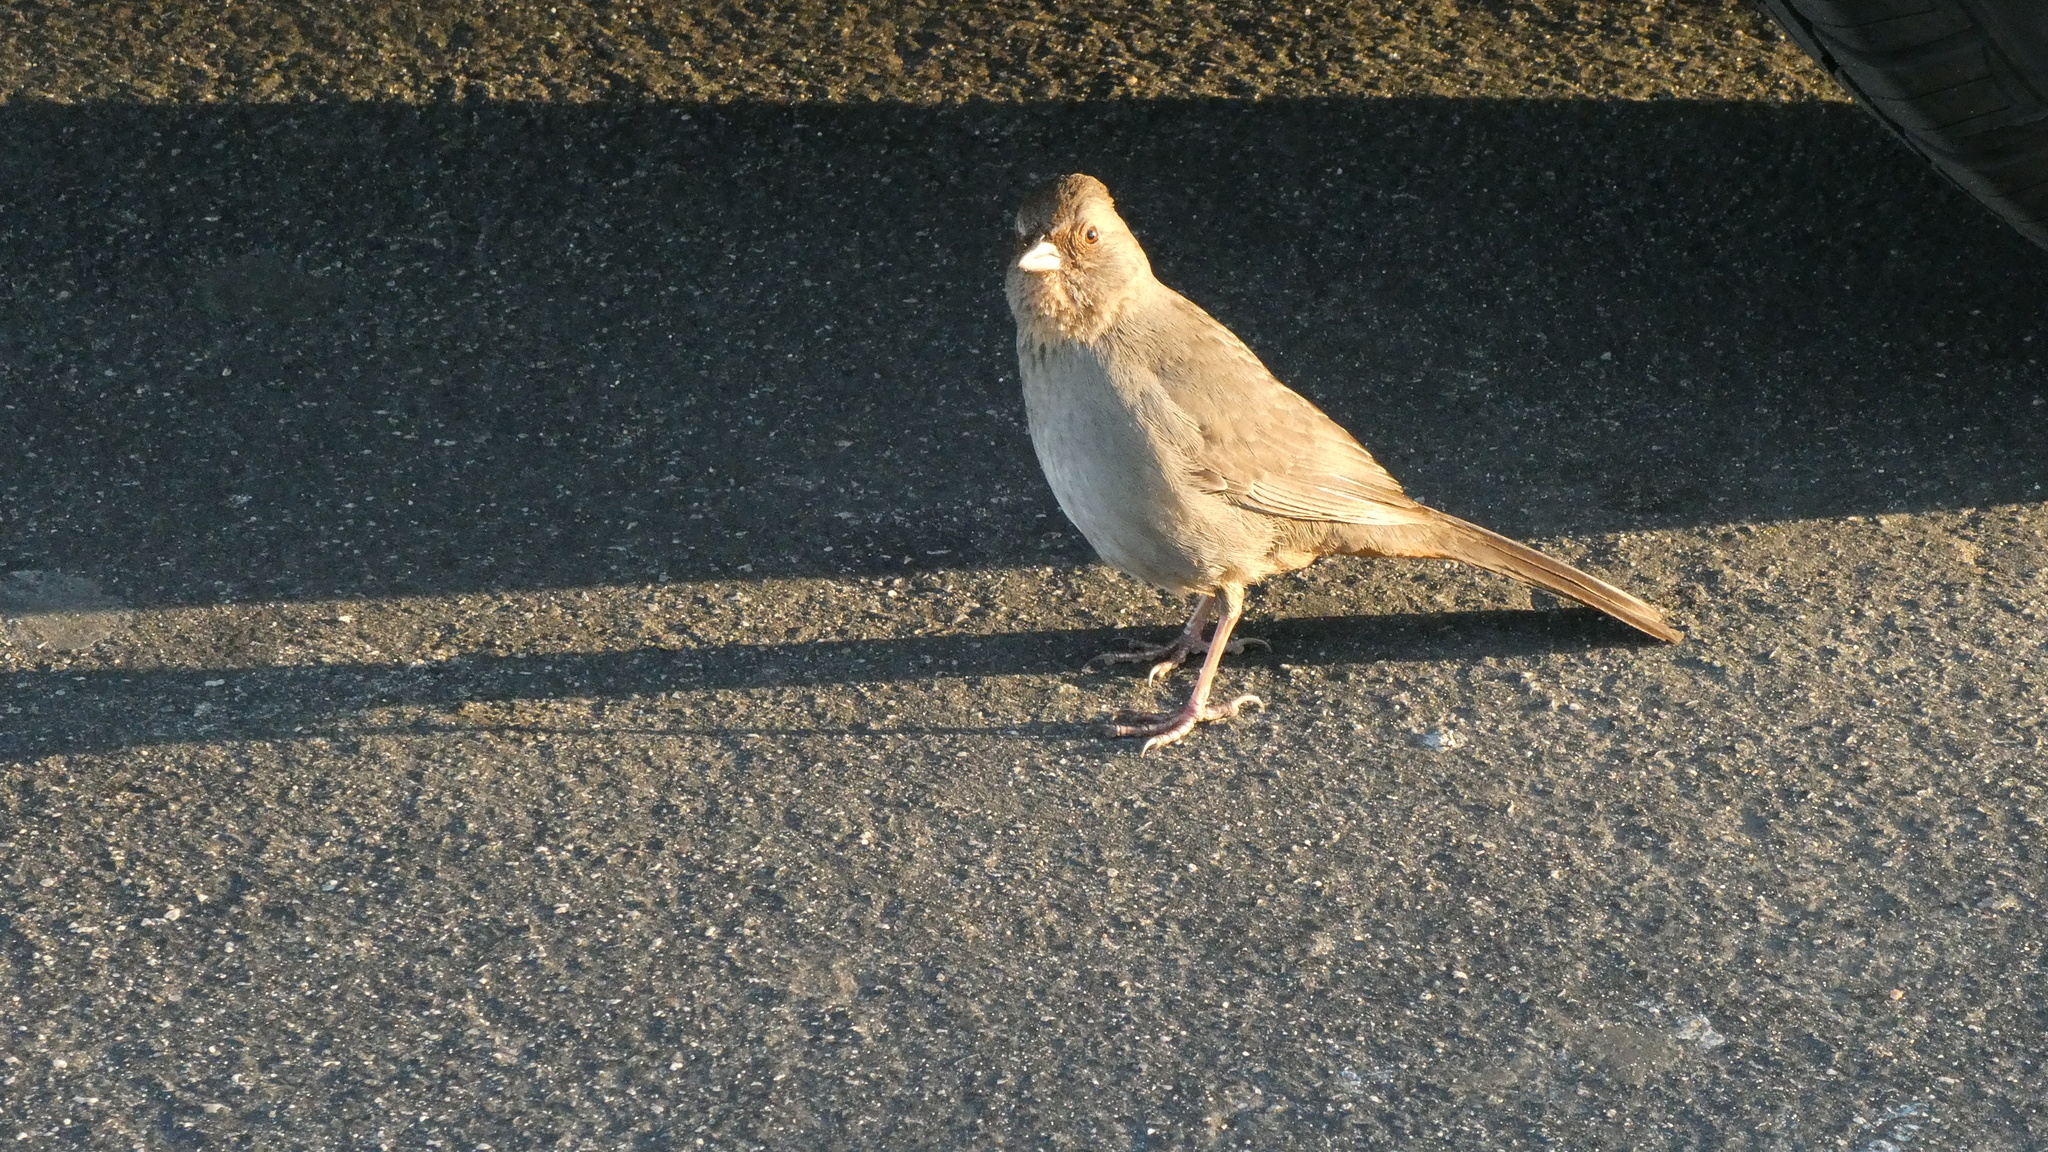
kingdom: Animalia
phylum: Chordata
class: Aves
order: Passeriformes
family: Passerellidae
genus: Melozone
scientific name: Melozone crissalis
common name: California towhee
